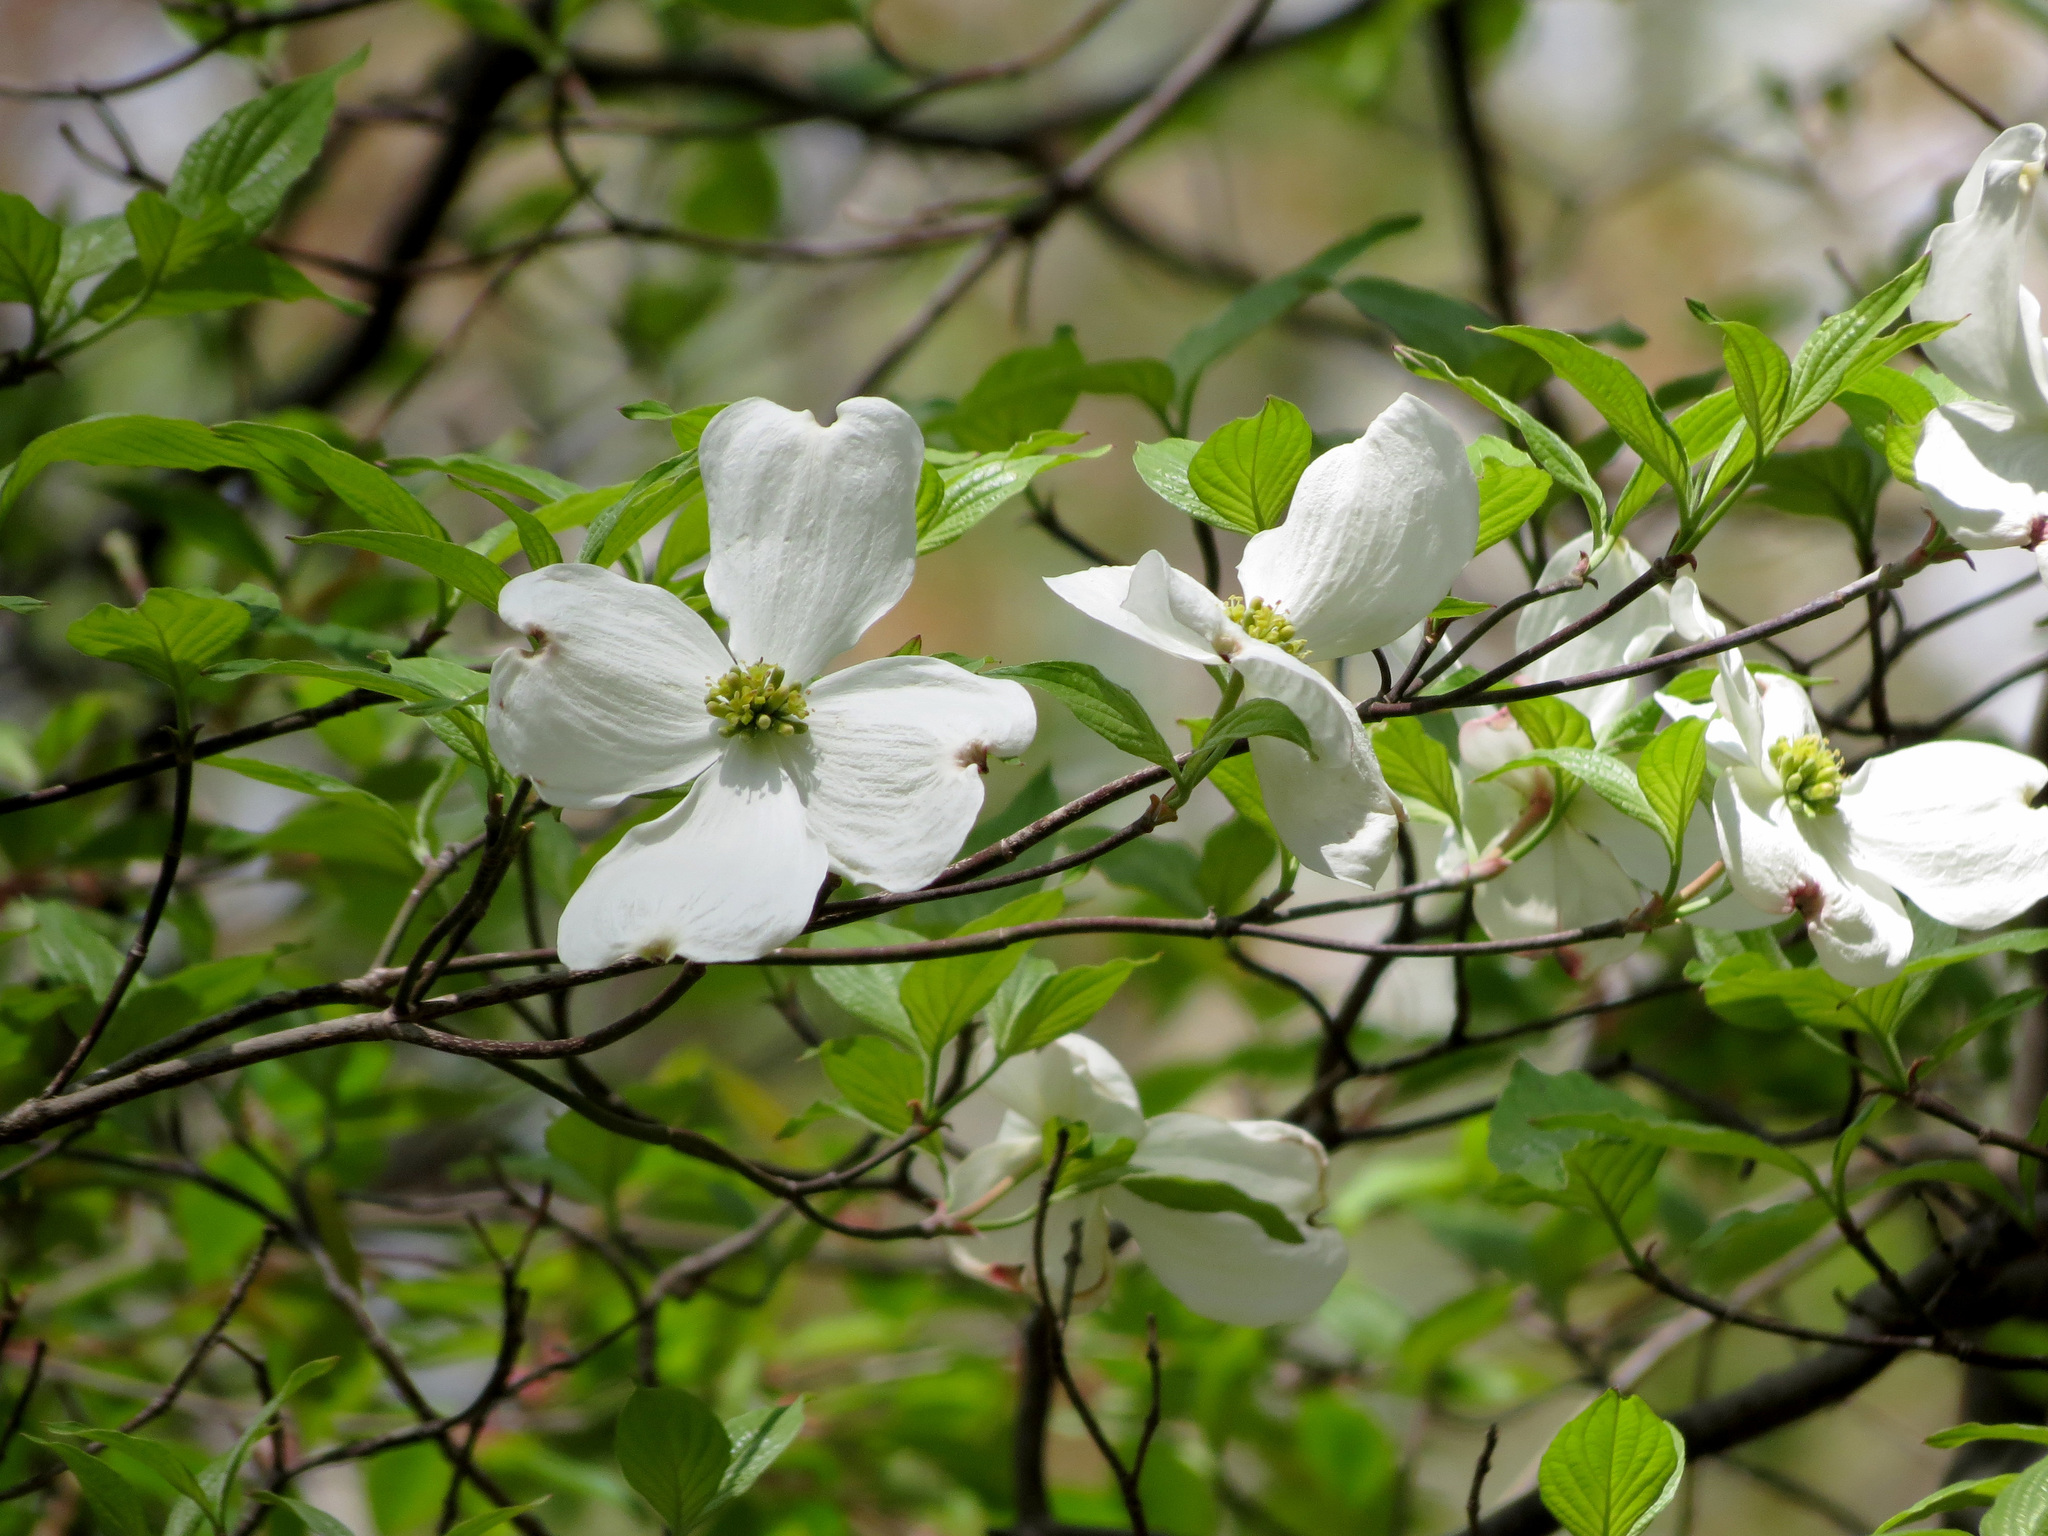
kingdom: Plantae
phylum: Tracheophyta
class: Magnoliopsida
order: Cornales
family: Cornaceae
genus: Cornus
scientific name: Cornus florida
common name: Flowering dogwood
